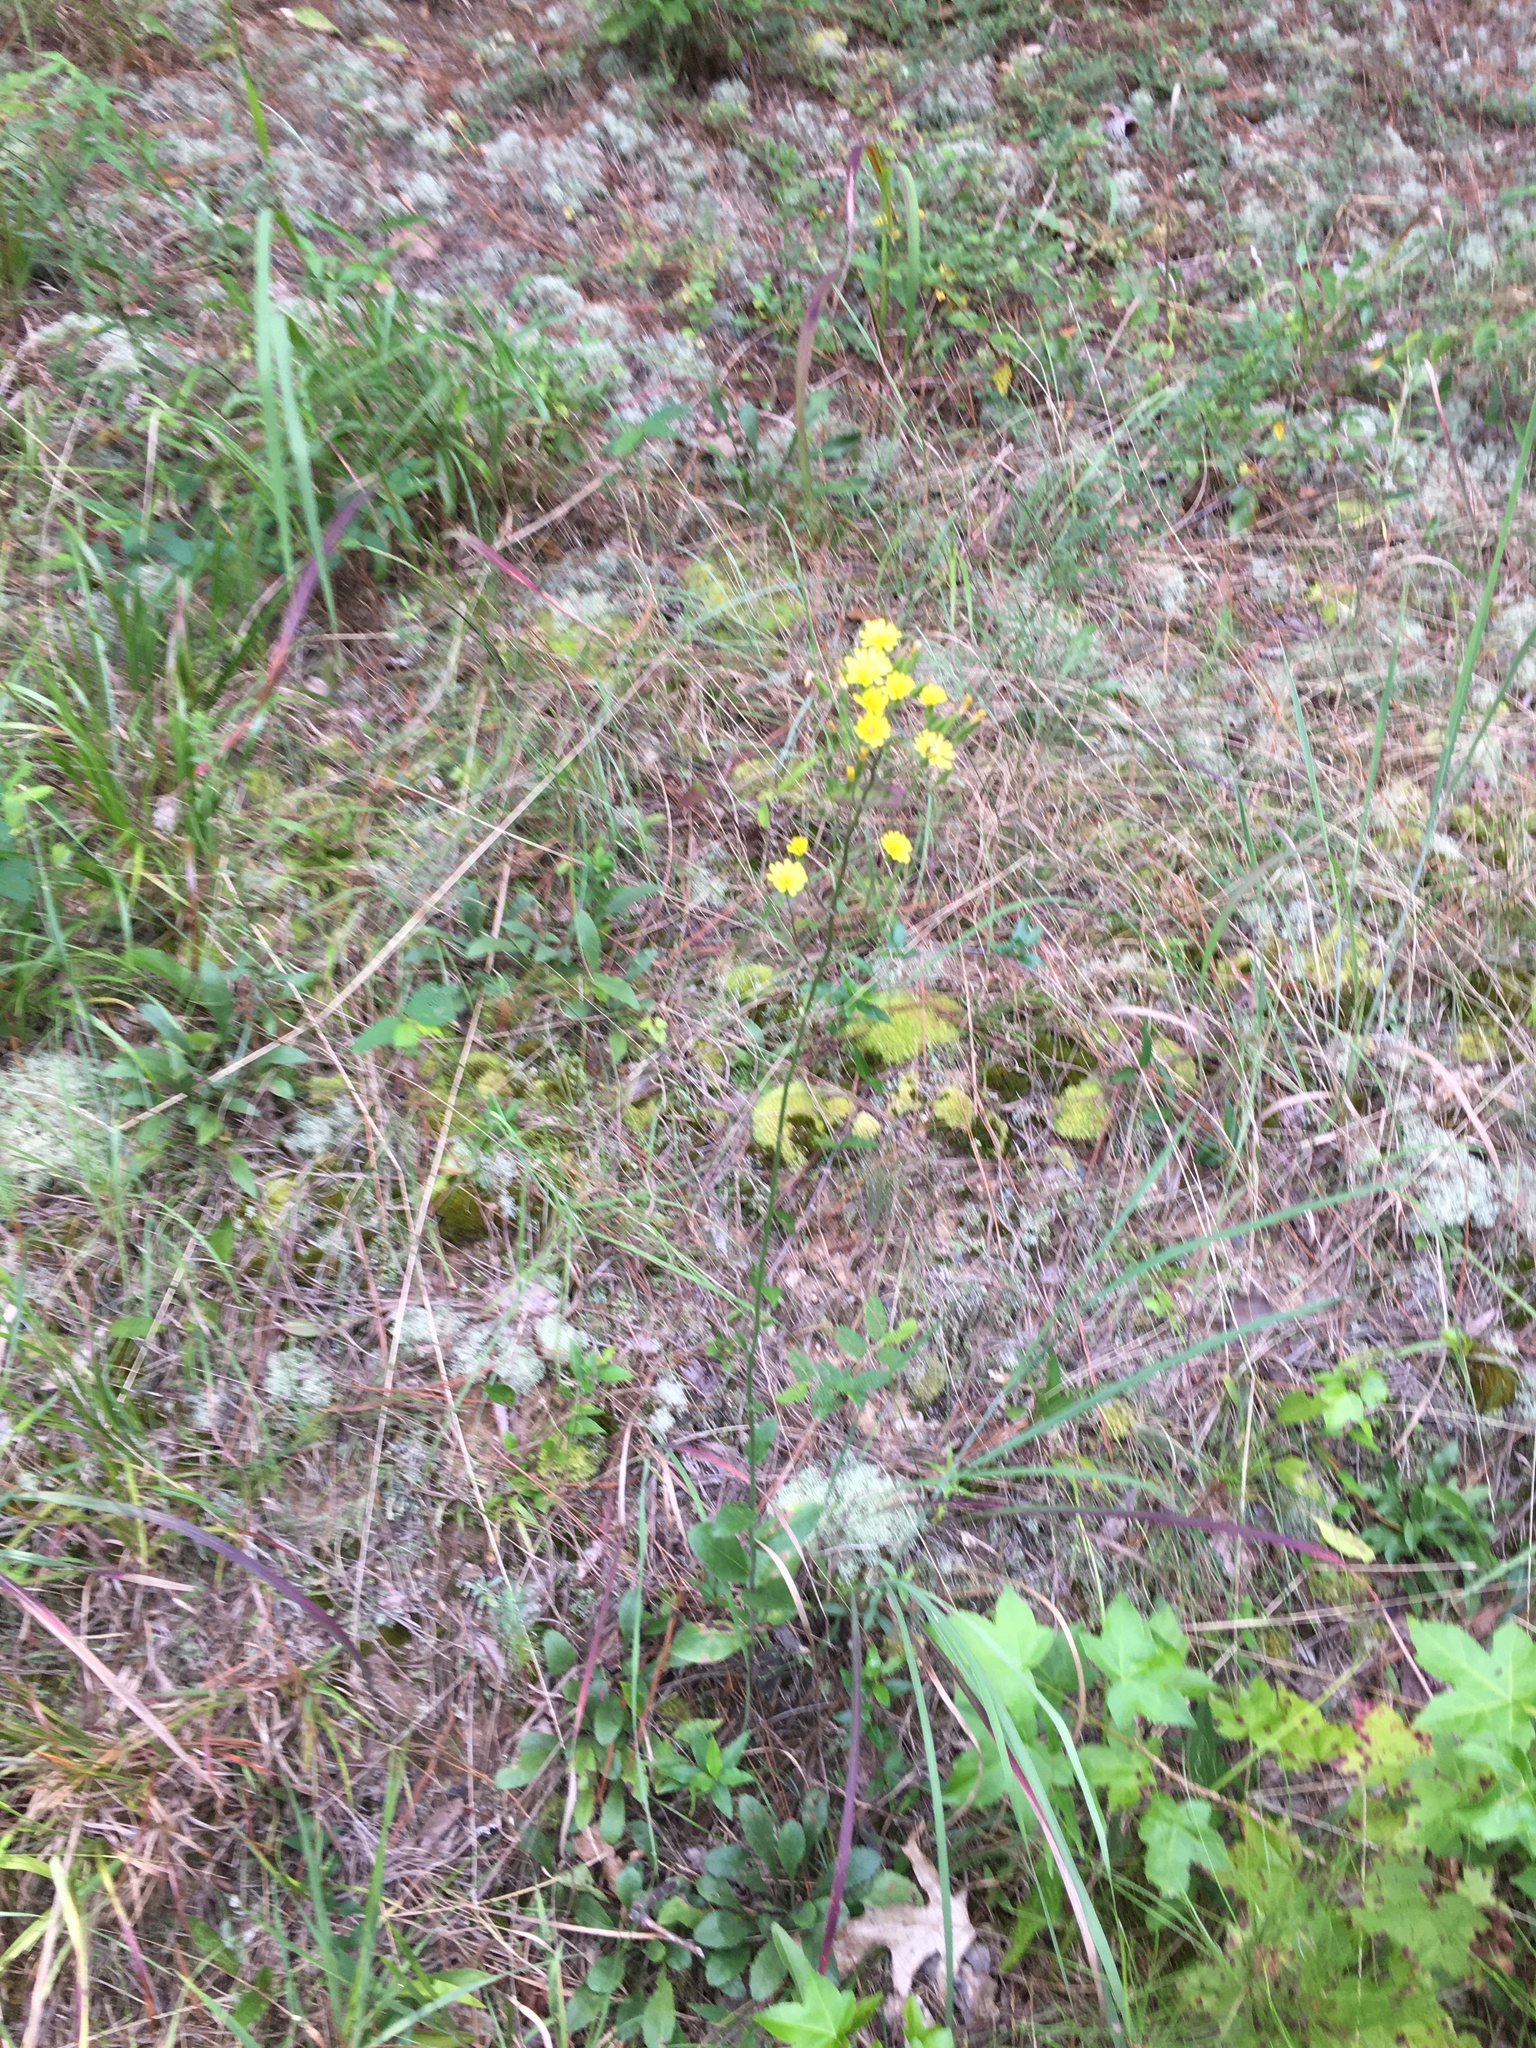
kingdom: Plantae
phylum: Tracheophyta
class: Magnoliopsida
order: Asterales
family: Asteraceae
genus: Hieracium
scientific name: Hieracium gronovii
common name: Beaked hawkweed
